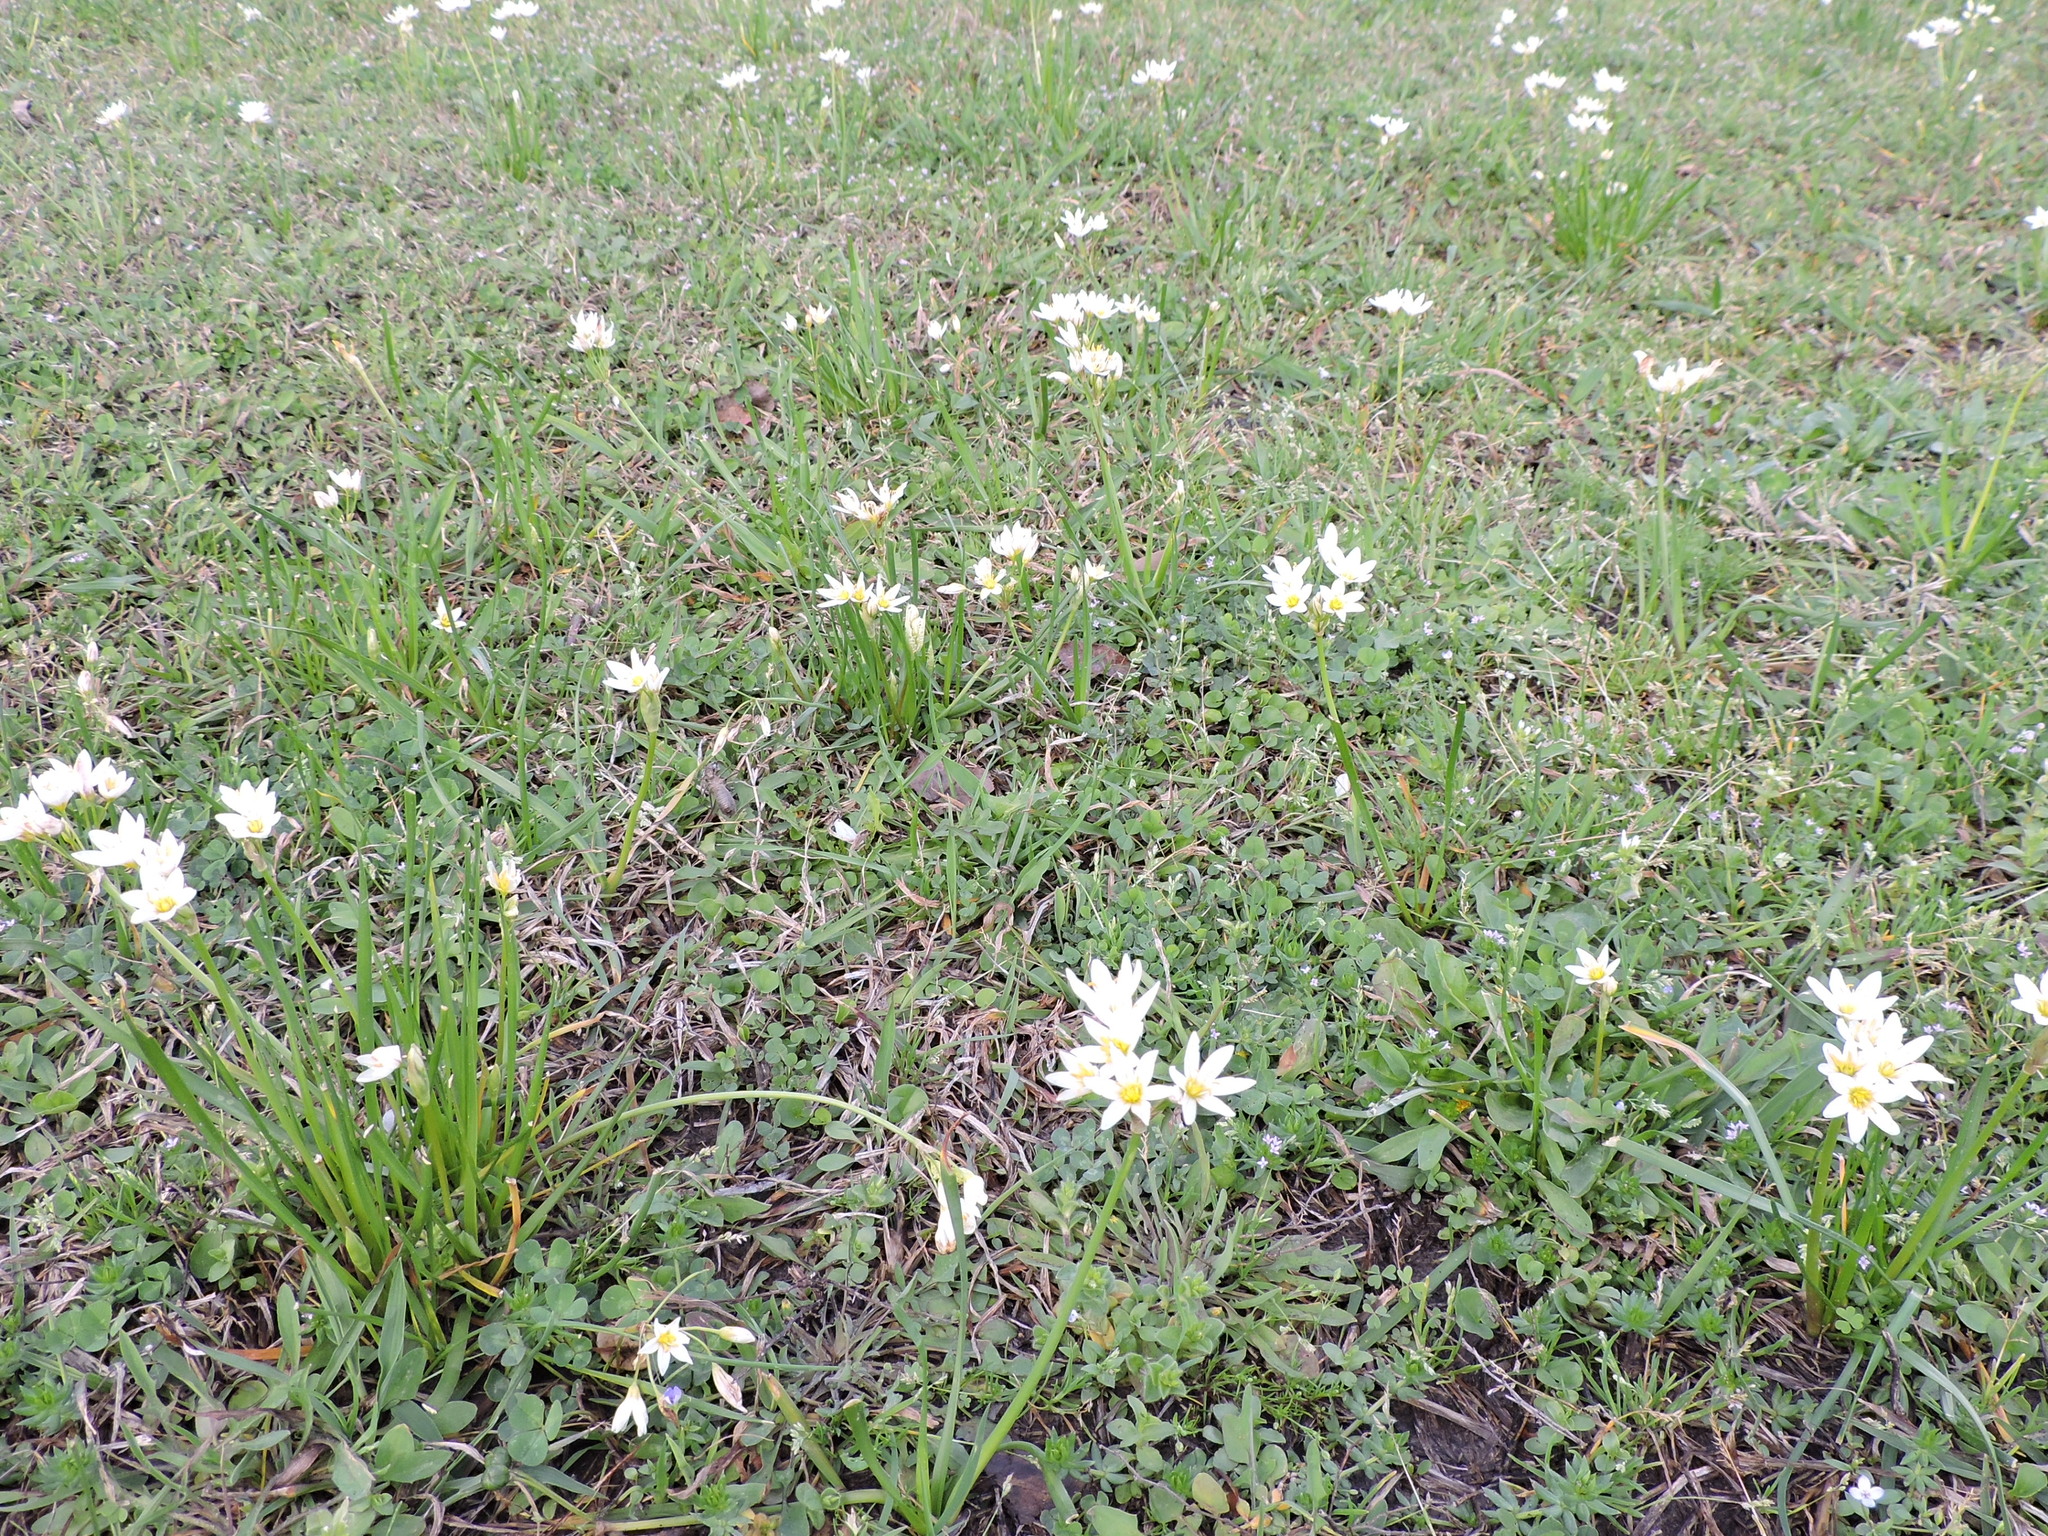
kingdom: Plantae
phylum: Tracheophyta
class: Liliopsida
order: Asparagales
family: Amaryllidaceae
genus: Nothoscordum
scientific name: Nothoscordum bivalve
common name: Crow-poison
